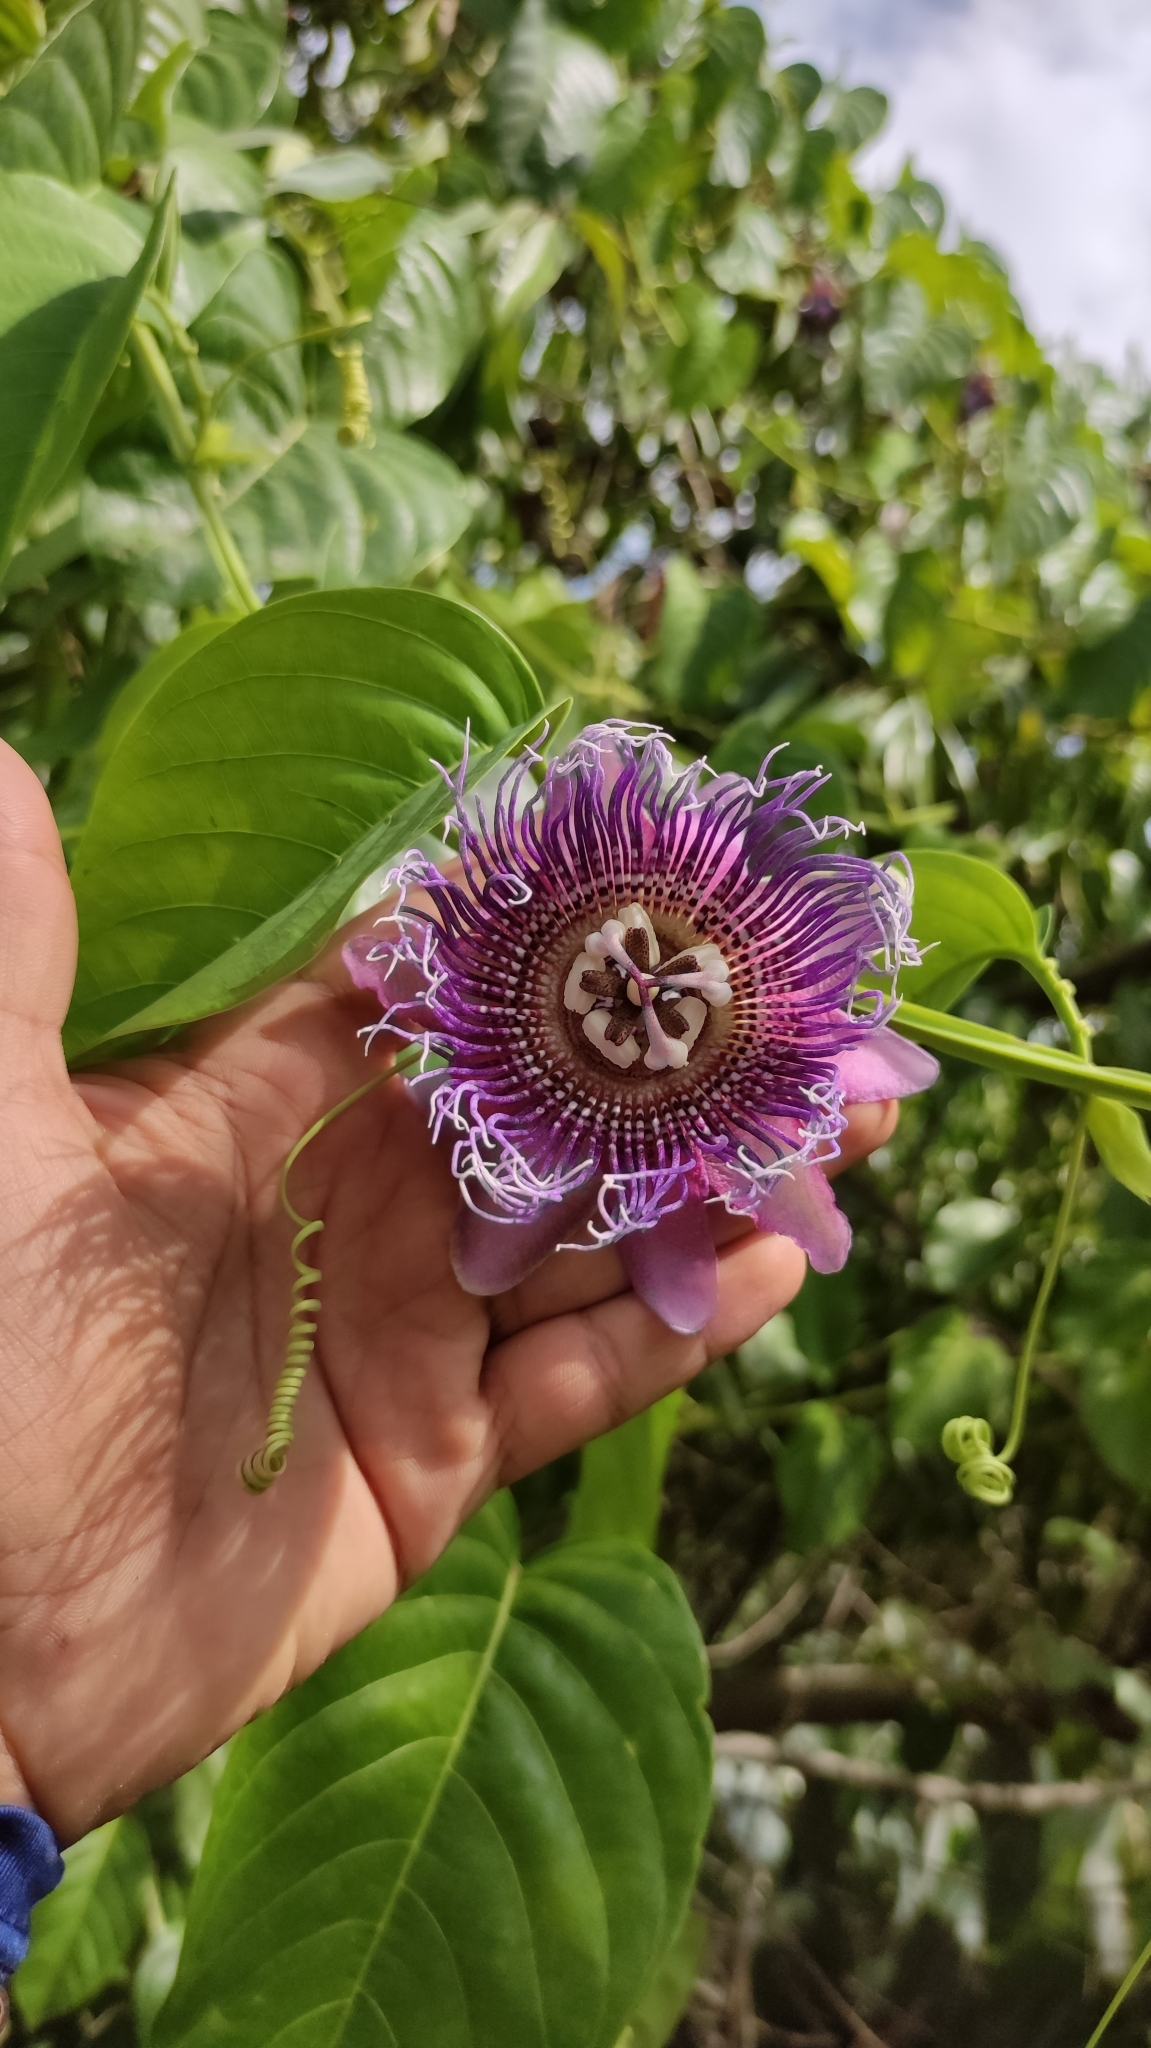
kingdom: Plantae
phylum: Tracheophyta
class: Magnoliopsida
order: Malpighiales
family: Passifloraceae
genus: Passiflora
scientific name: Passiflora quadrangularis
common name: Giant granadilla
